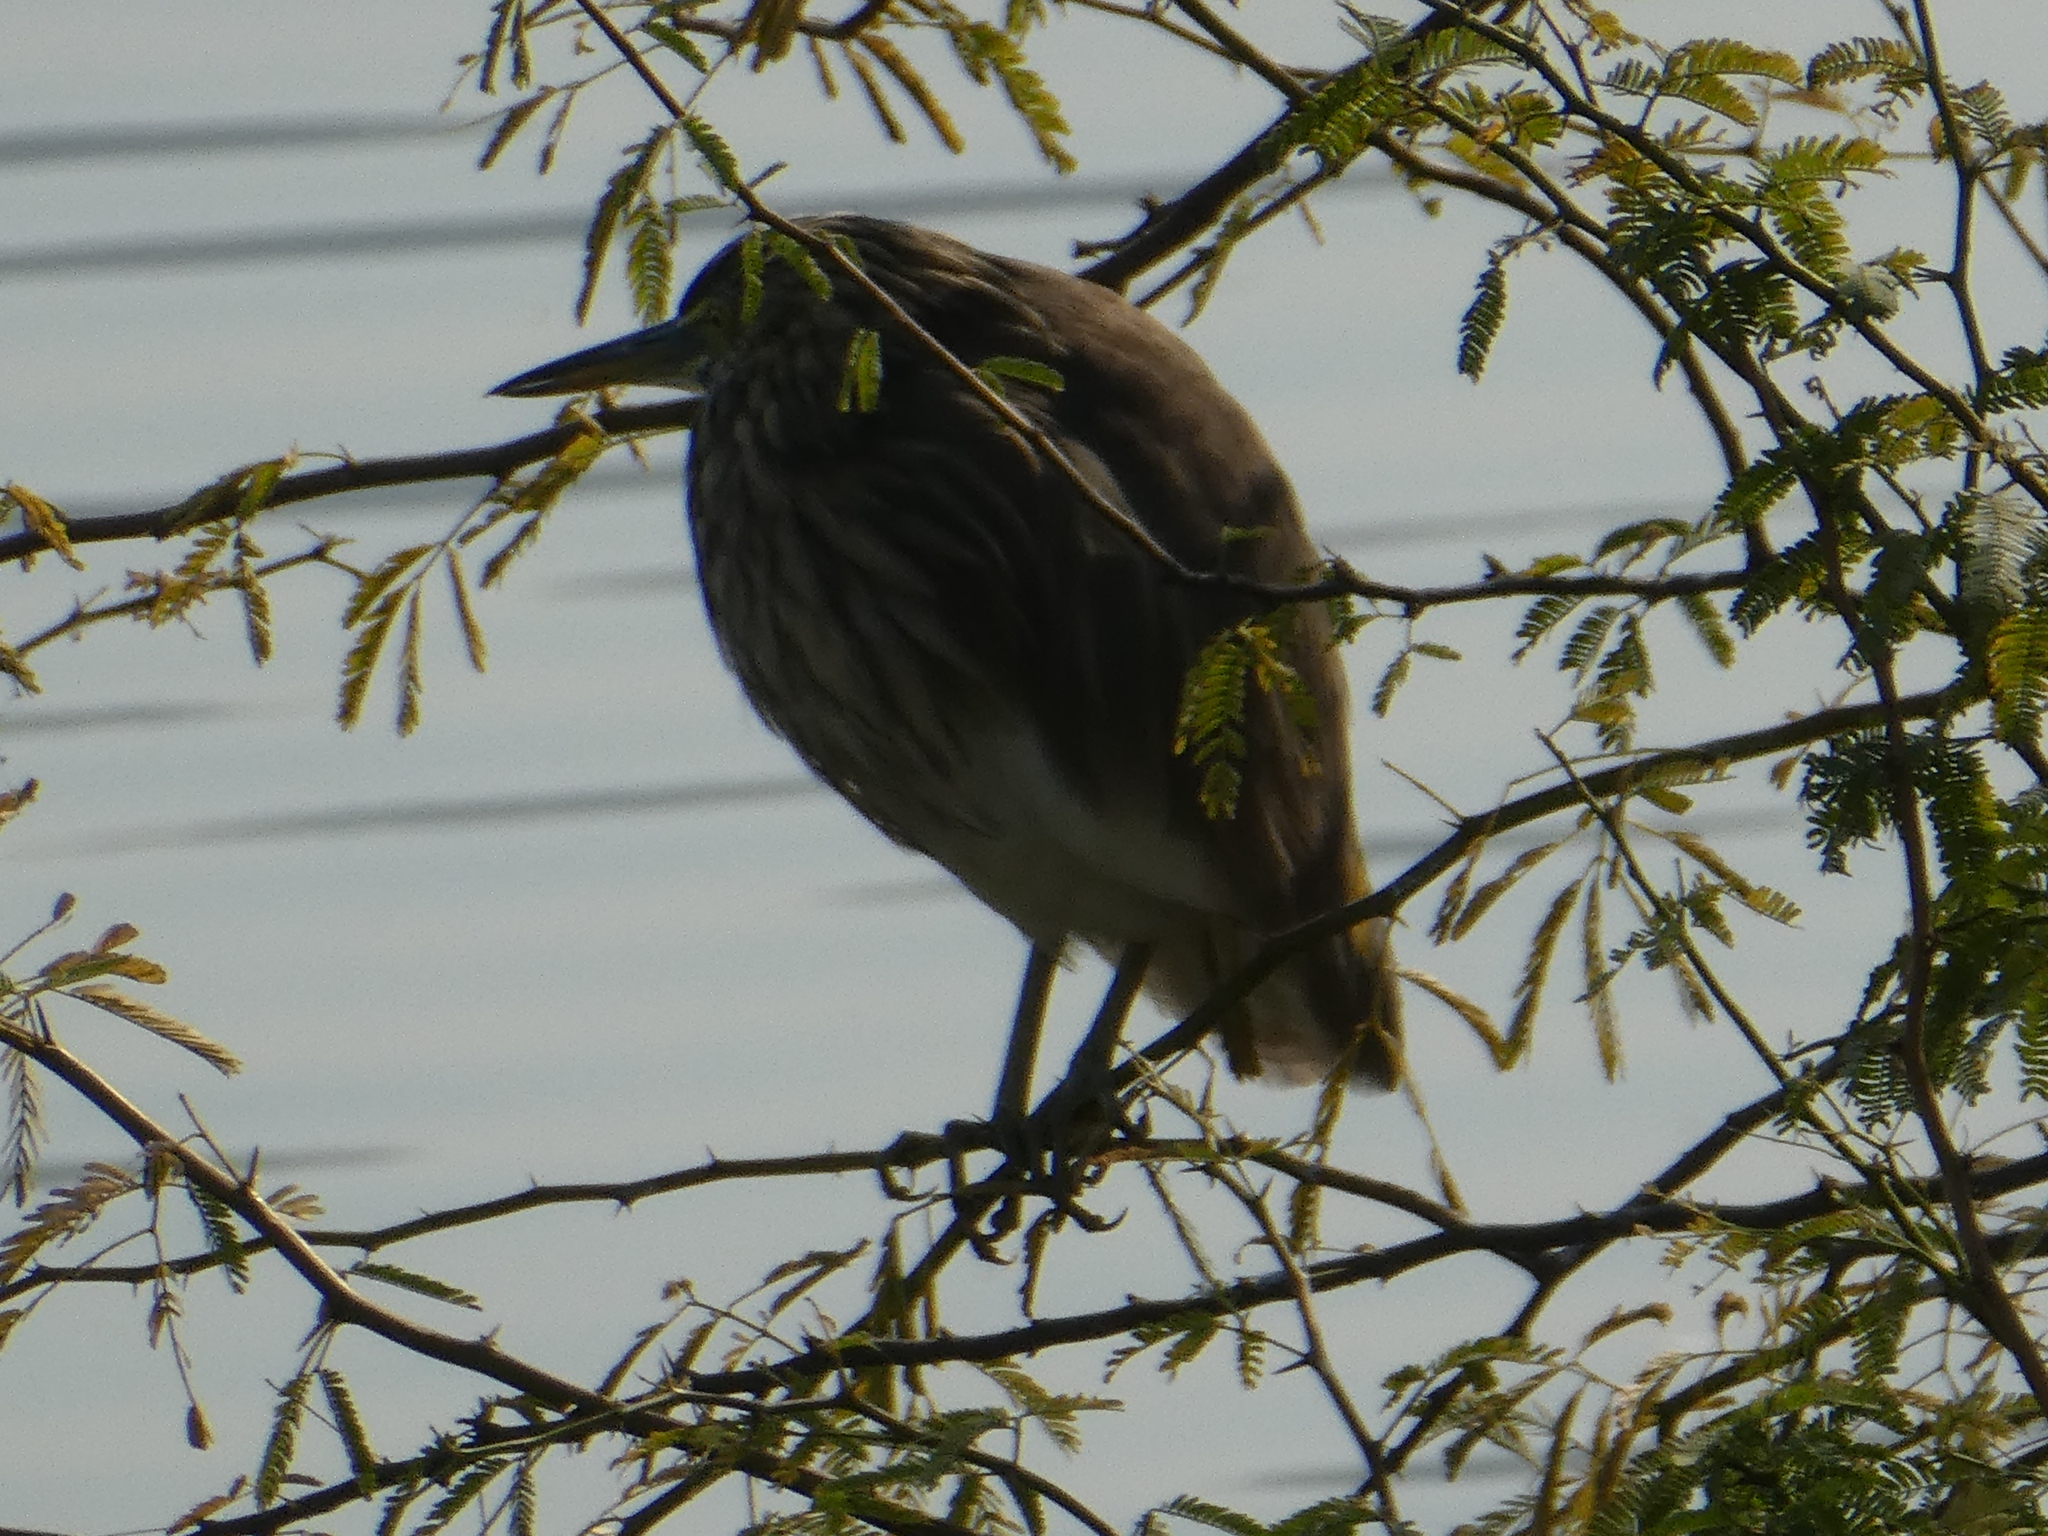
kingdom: Animalia
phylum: Chordata
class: Aves
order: Pelecaniformes
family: Ardeidae
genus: Ardeola
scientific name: Ardeola grayii
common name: Indian pond heron
